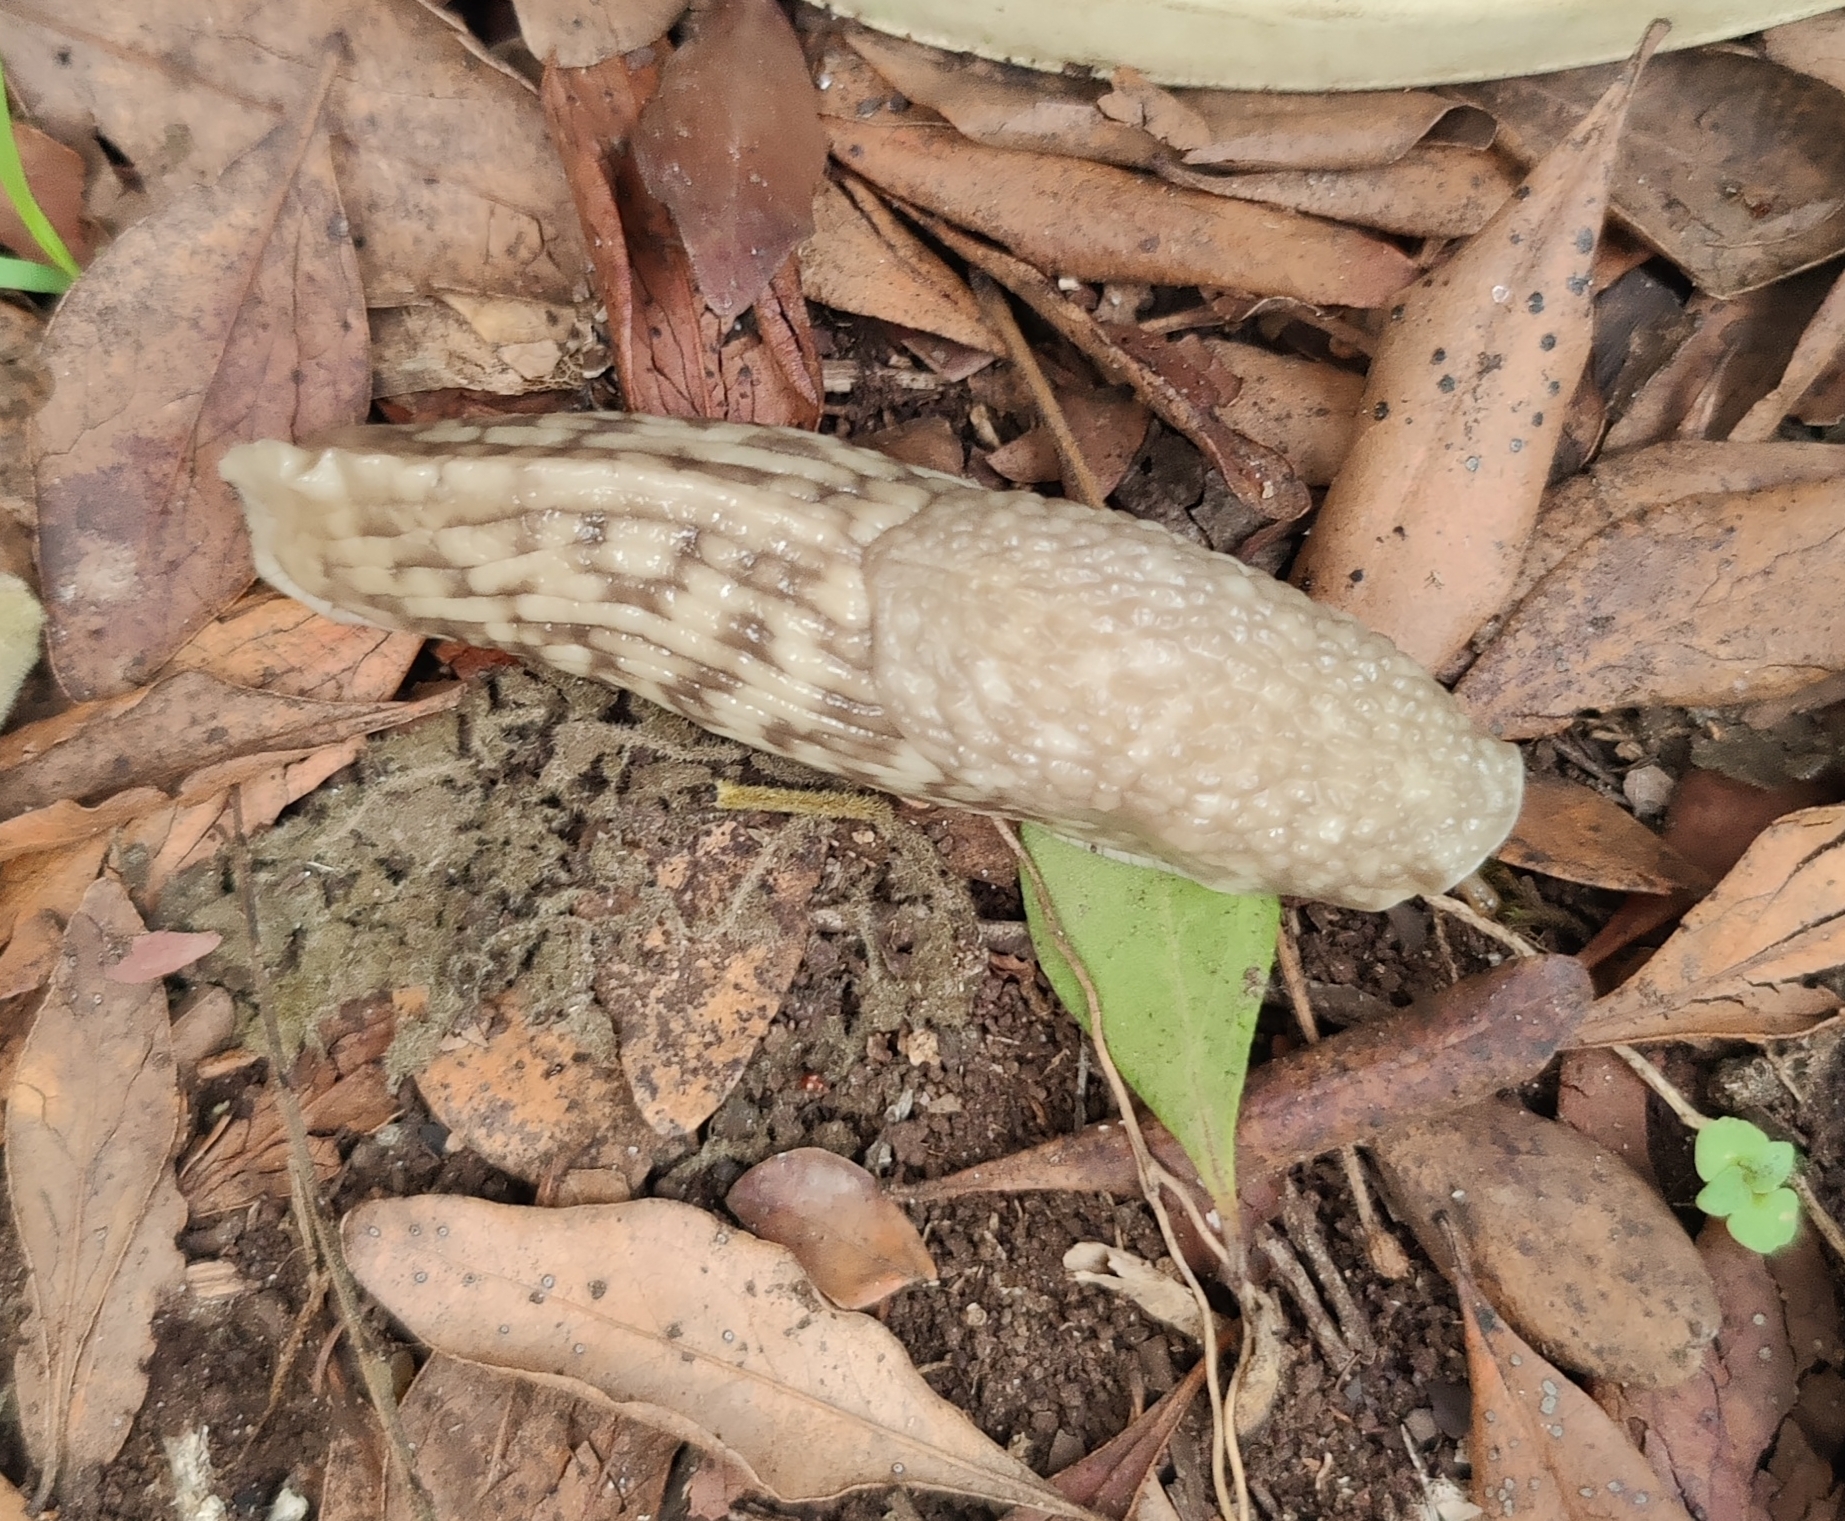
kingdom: Animalia
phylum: Mollusca
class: Gastropoda
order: Stylommatophora
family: Urocyclidae
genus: Polytoxon
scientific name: Polytoxon robustum
